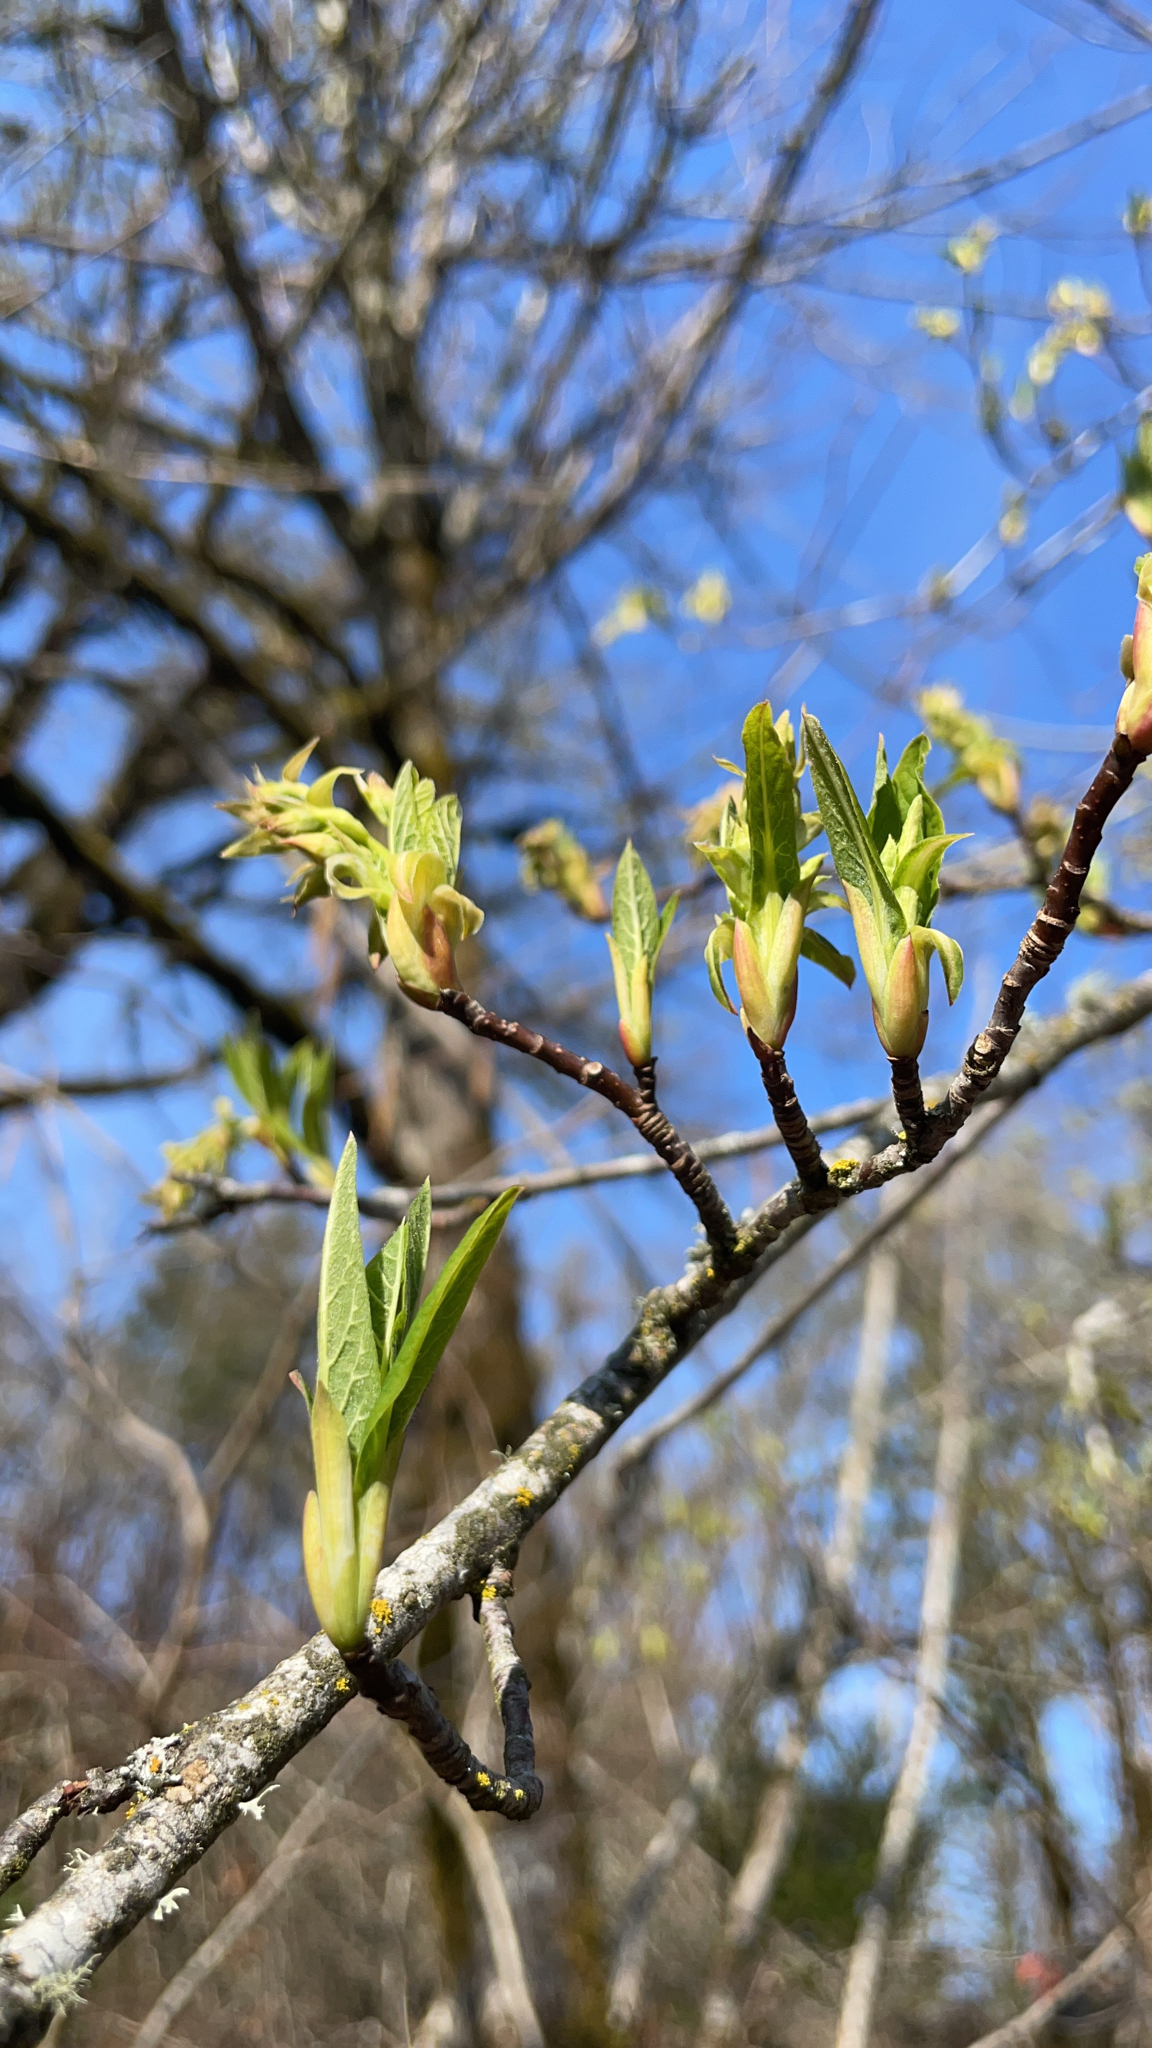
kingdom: Plantae
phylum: Tracheophyta
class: Magnoliopsida
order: Rosales
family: Rosaceae
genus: Oemleria
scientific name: Oemleria cerasiformis
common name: Osoberry
